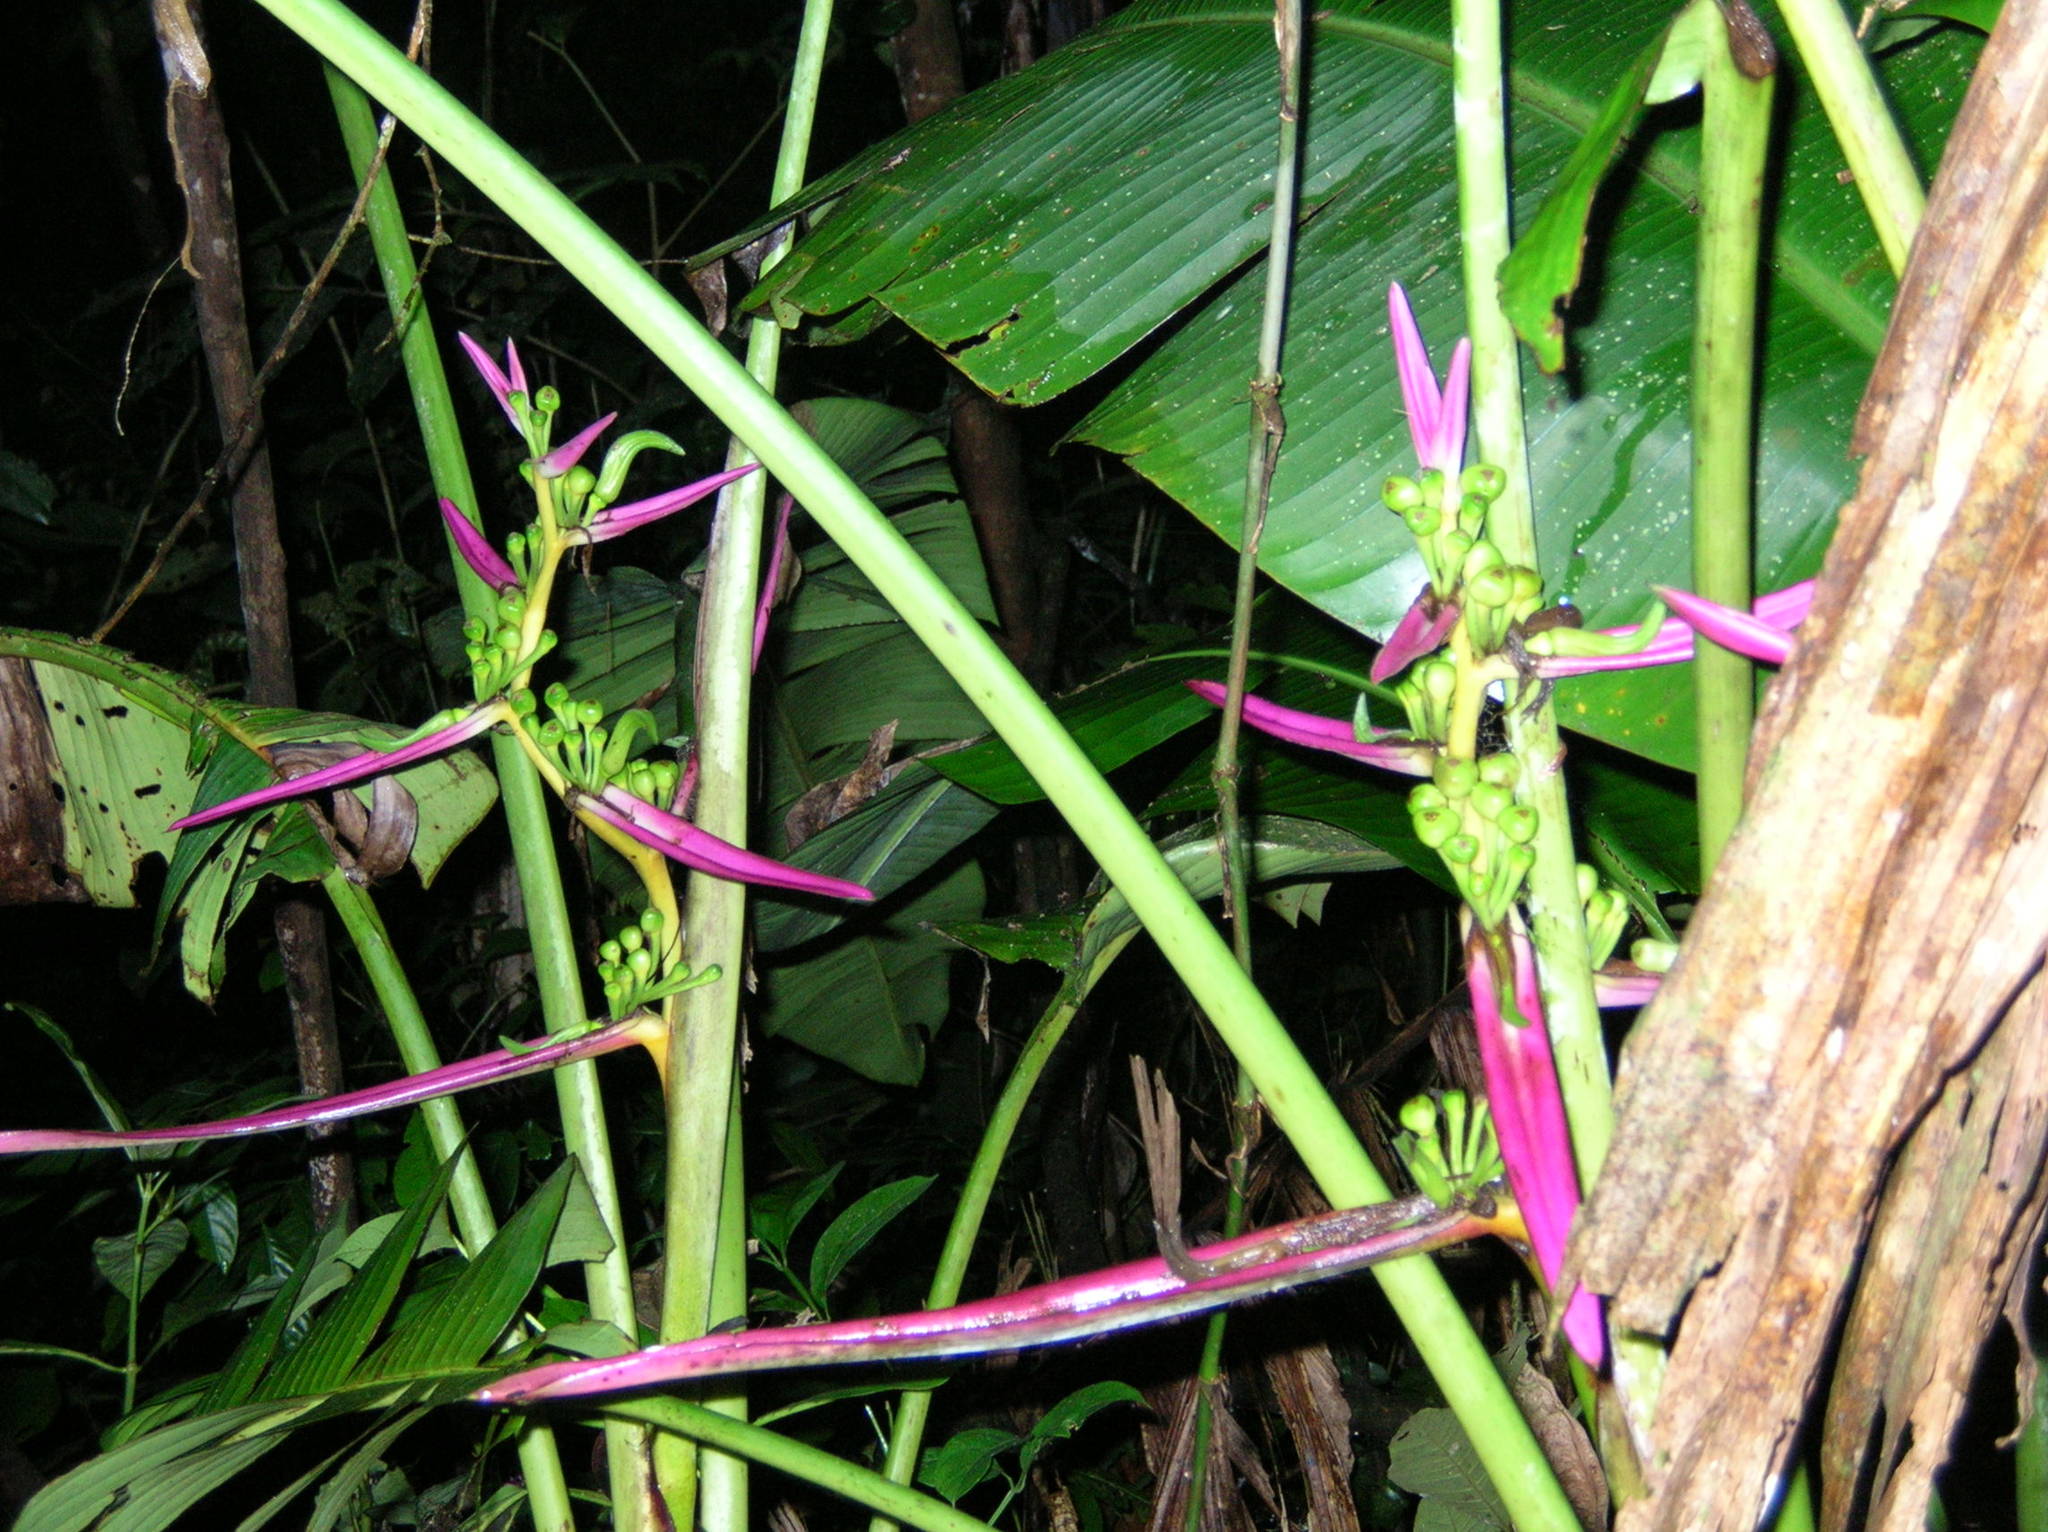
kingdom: Plantae
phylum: Tracheophyta
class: Liliopsida
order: Zingiberales
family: Heliconiaceae
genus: Heliconia
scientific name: Heliconia aemygdiana
